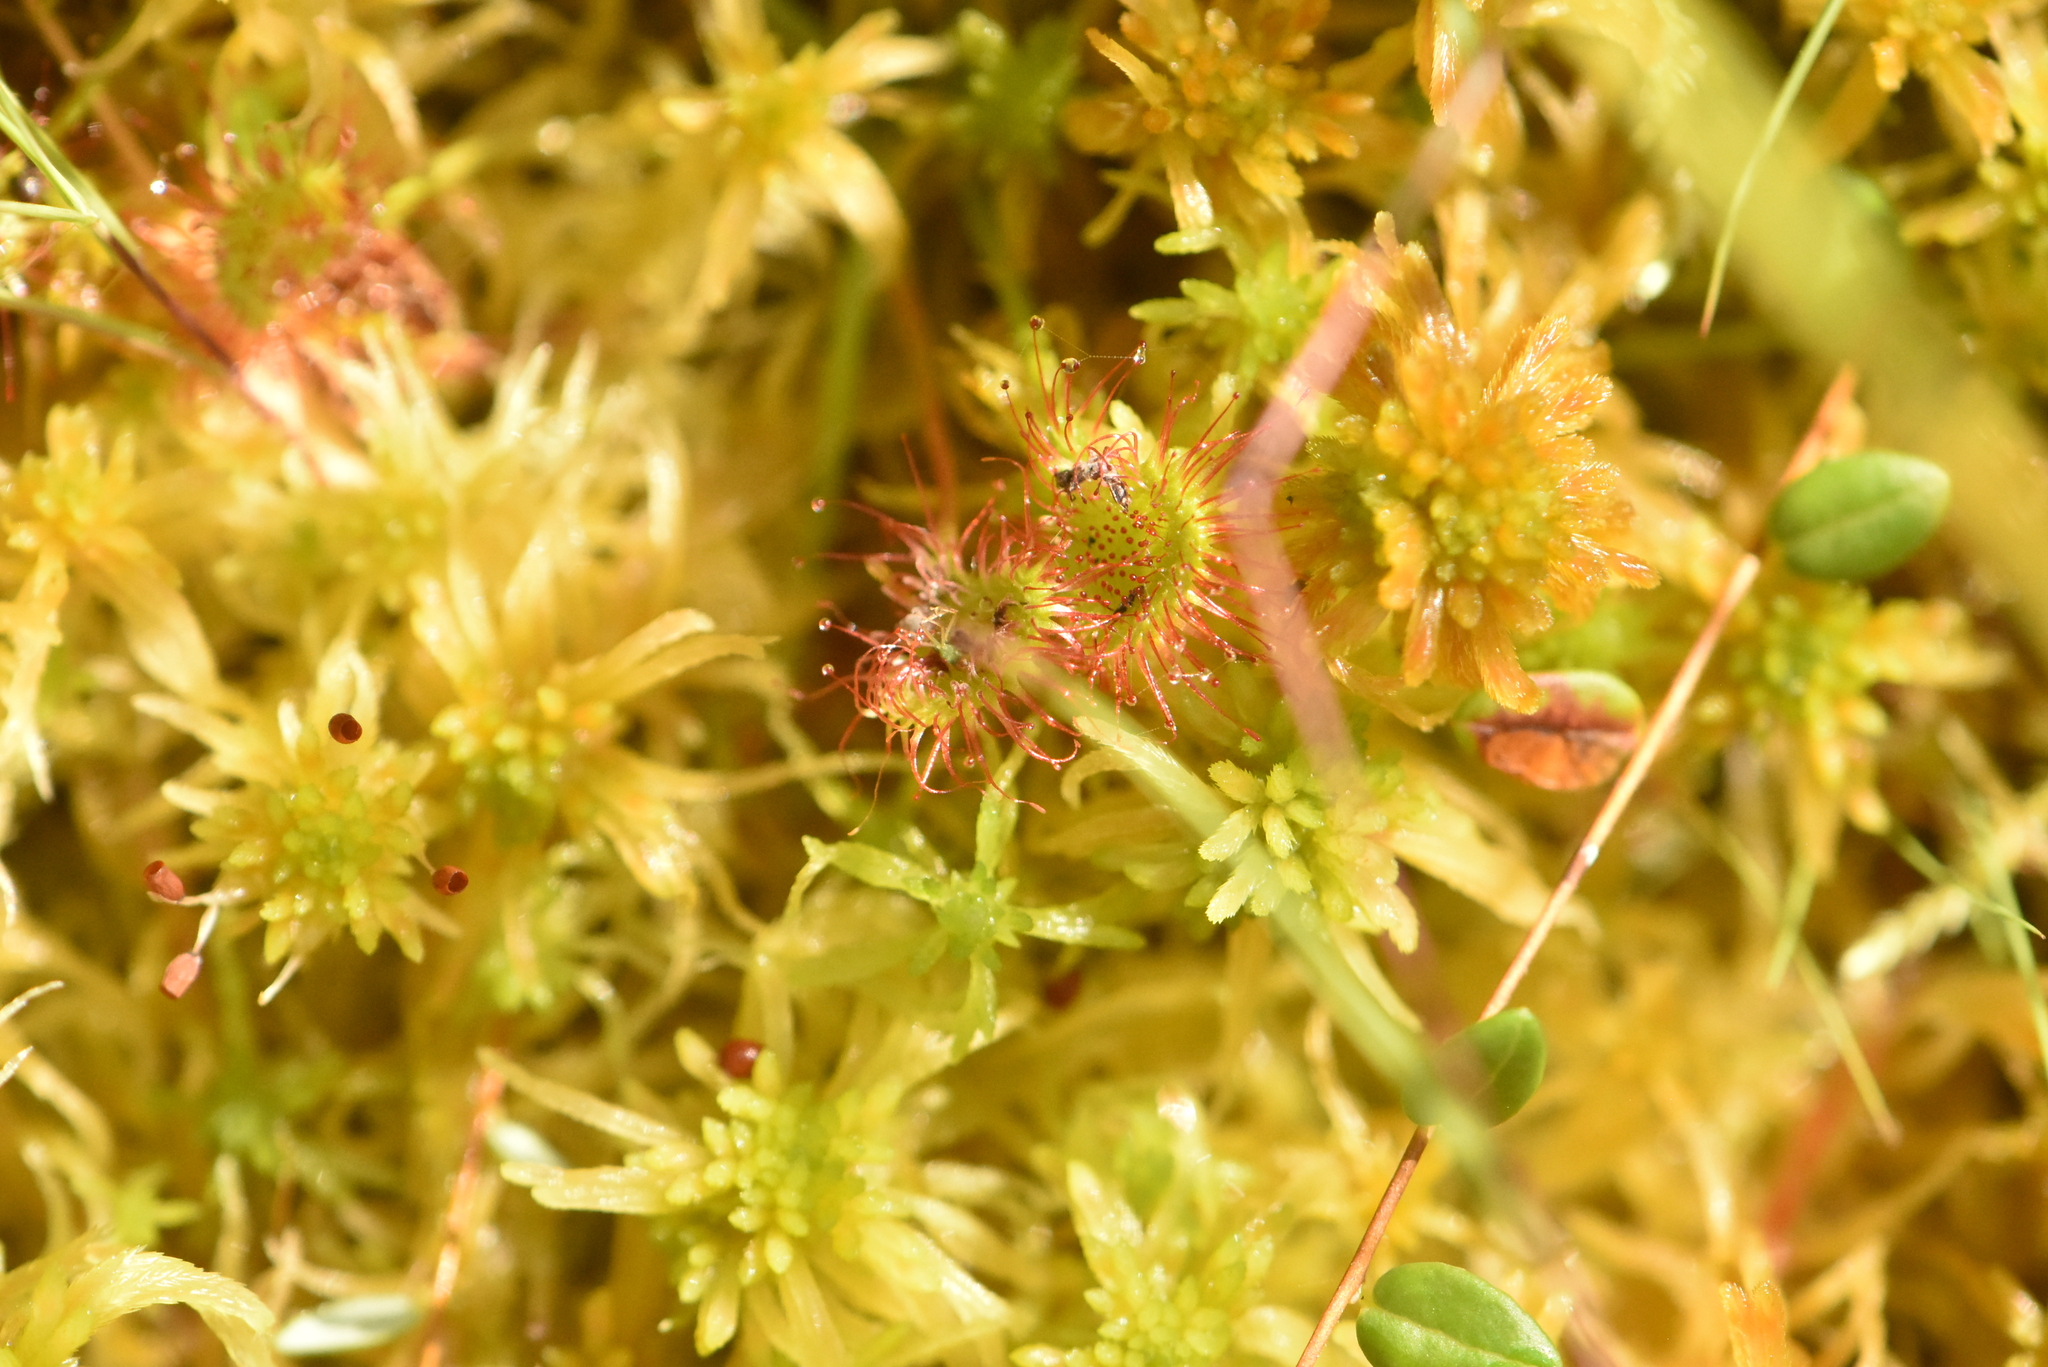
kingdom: Plantae
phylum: Tracheophyta
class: Magnoliopsida
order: Caryophyllales
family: Droseraceae
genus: Drosera
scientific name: Drosera rotundifolia
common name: Round-leaved sundew
